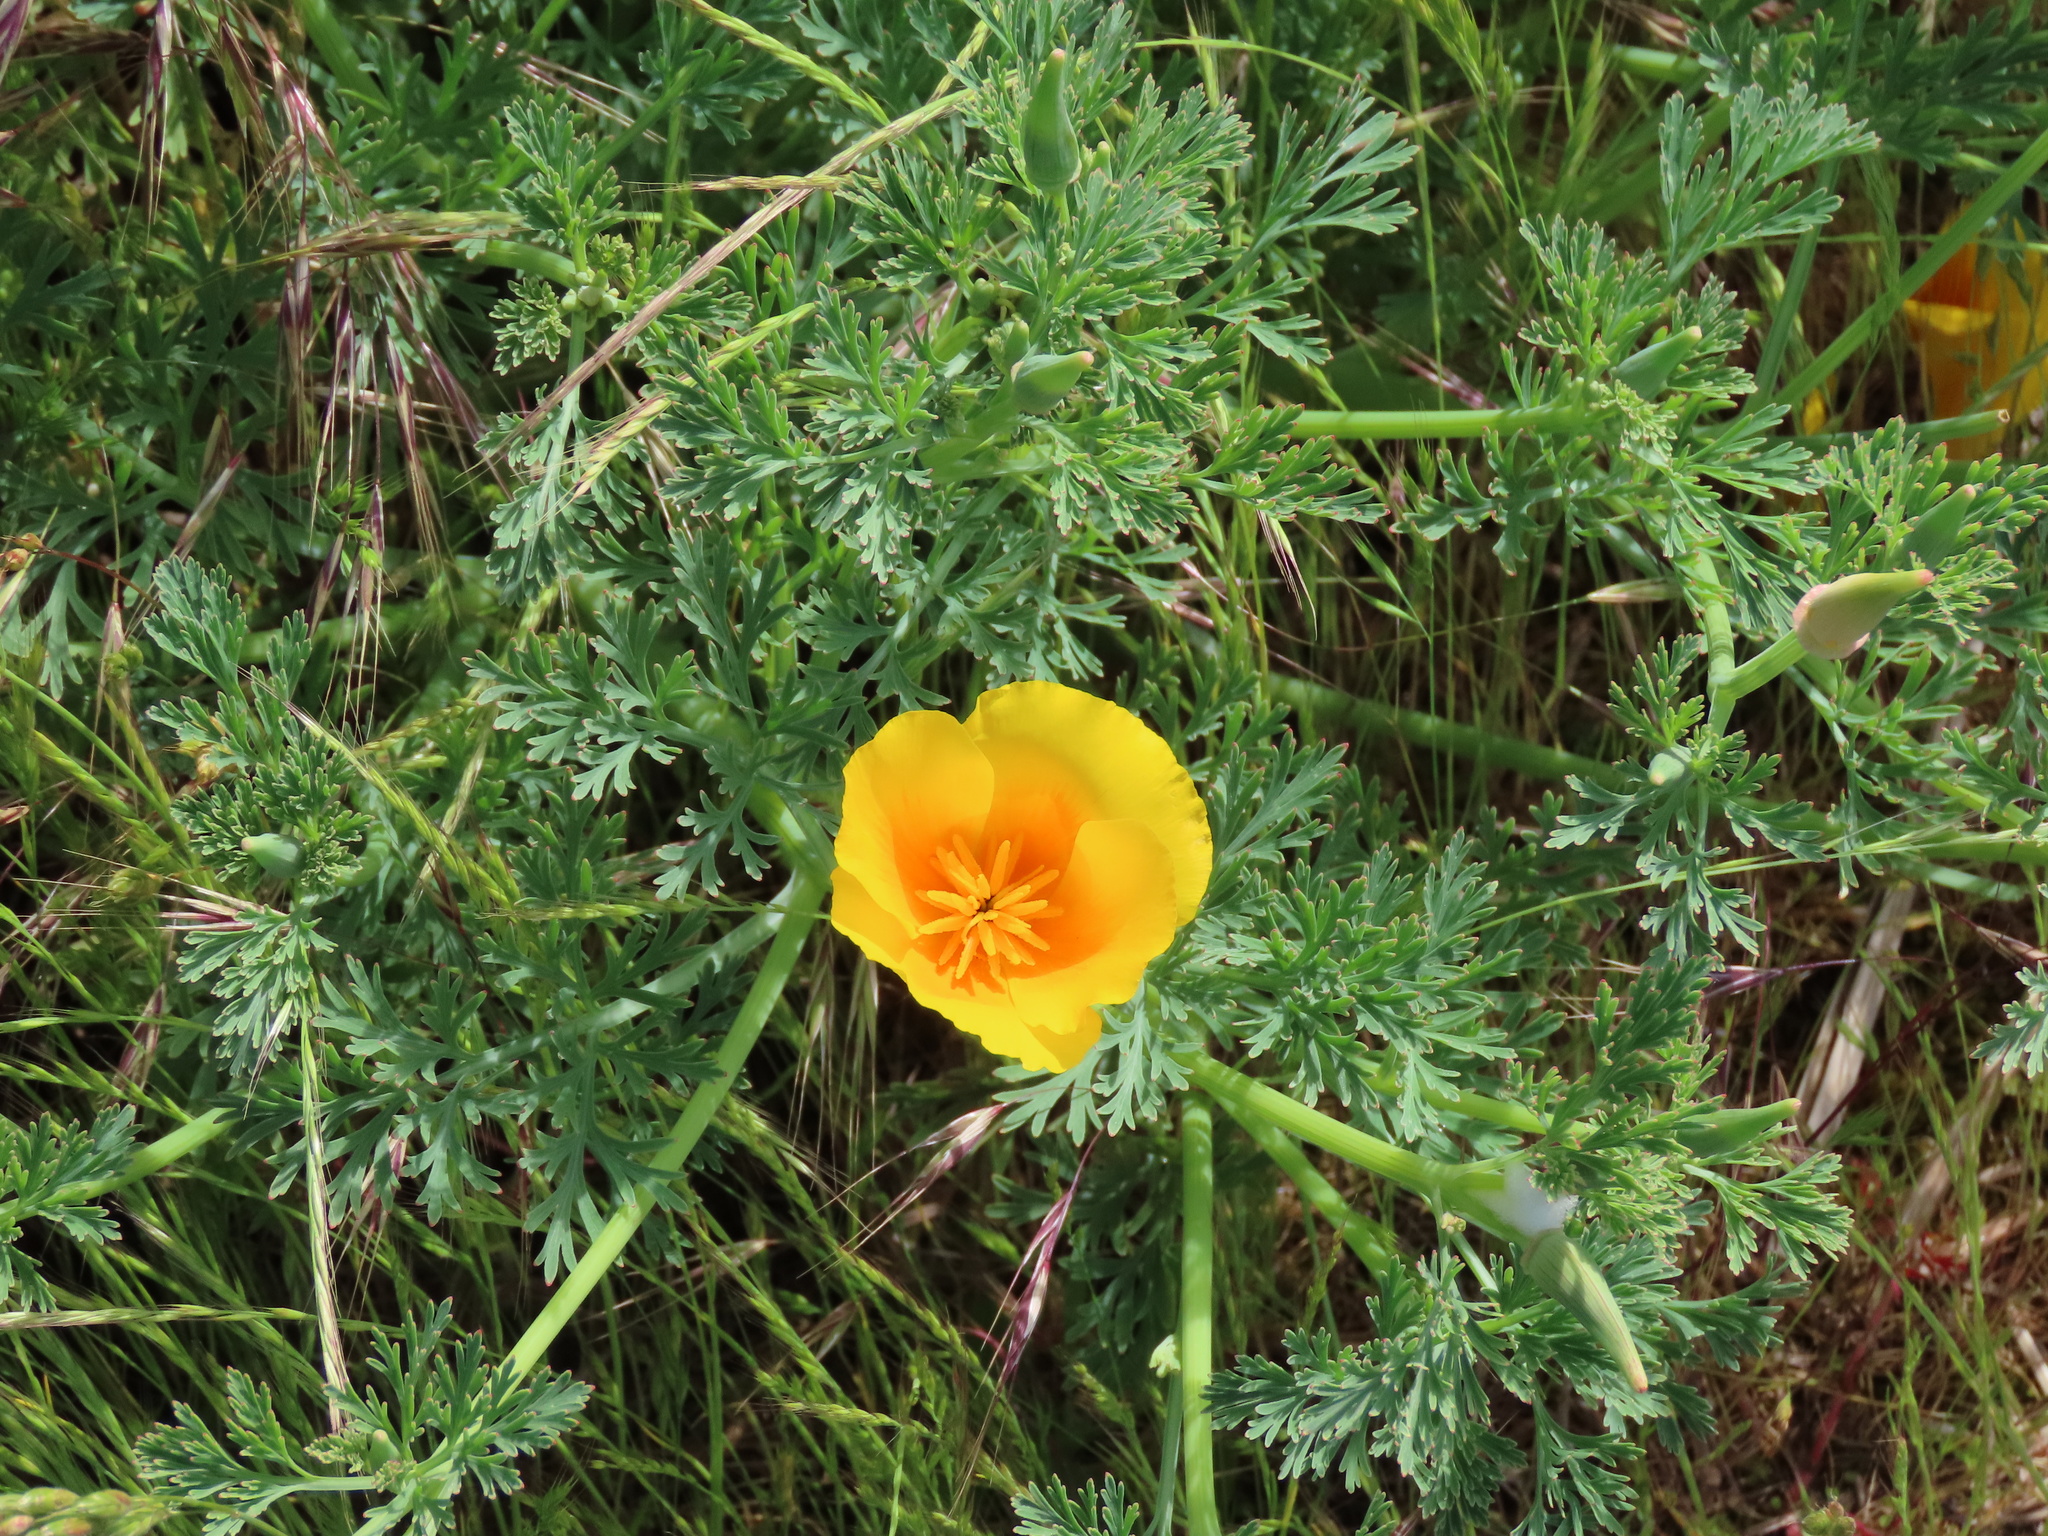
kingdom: Plantae
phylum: Tracheophyta
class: Magnoliopsida
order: Ranunculales
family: Papaveraceae
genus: Eschscholzia
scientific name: Eschscholzia californica
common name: California poppy
